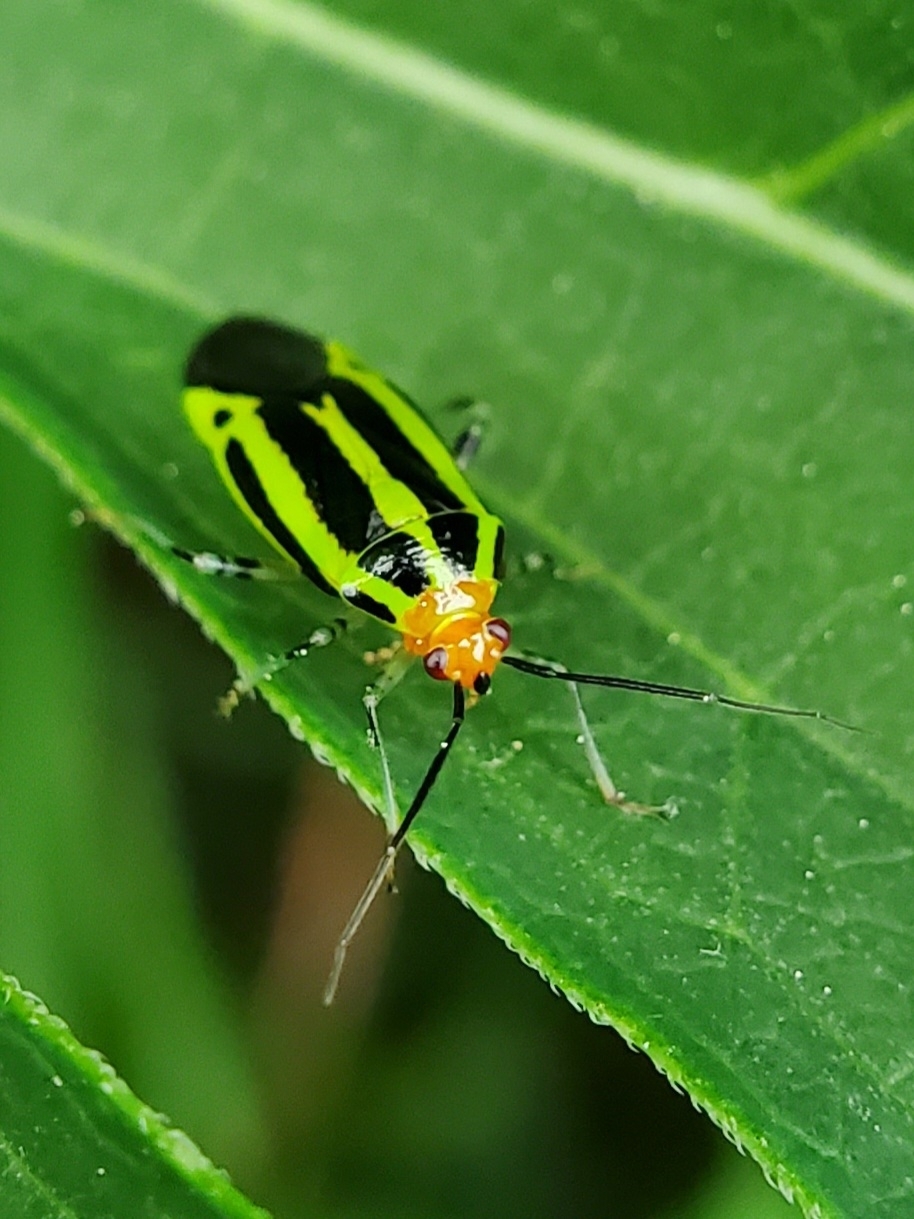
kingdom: Animalia
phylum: Arthropoda
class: Insecta
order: Hemiptera
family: Miridae
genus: Poecilocapsus
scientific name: Poecilocapsus lineatus
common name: Four-lined plant bug
